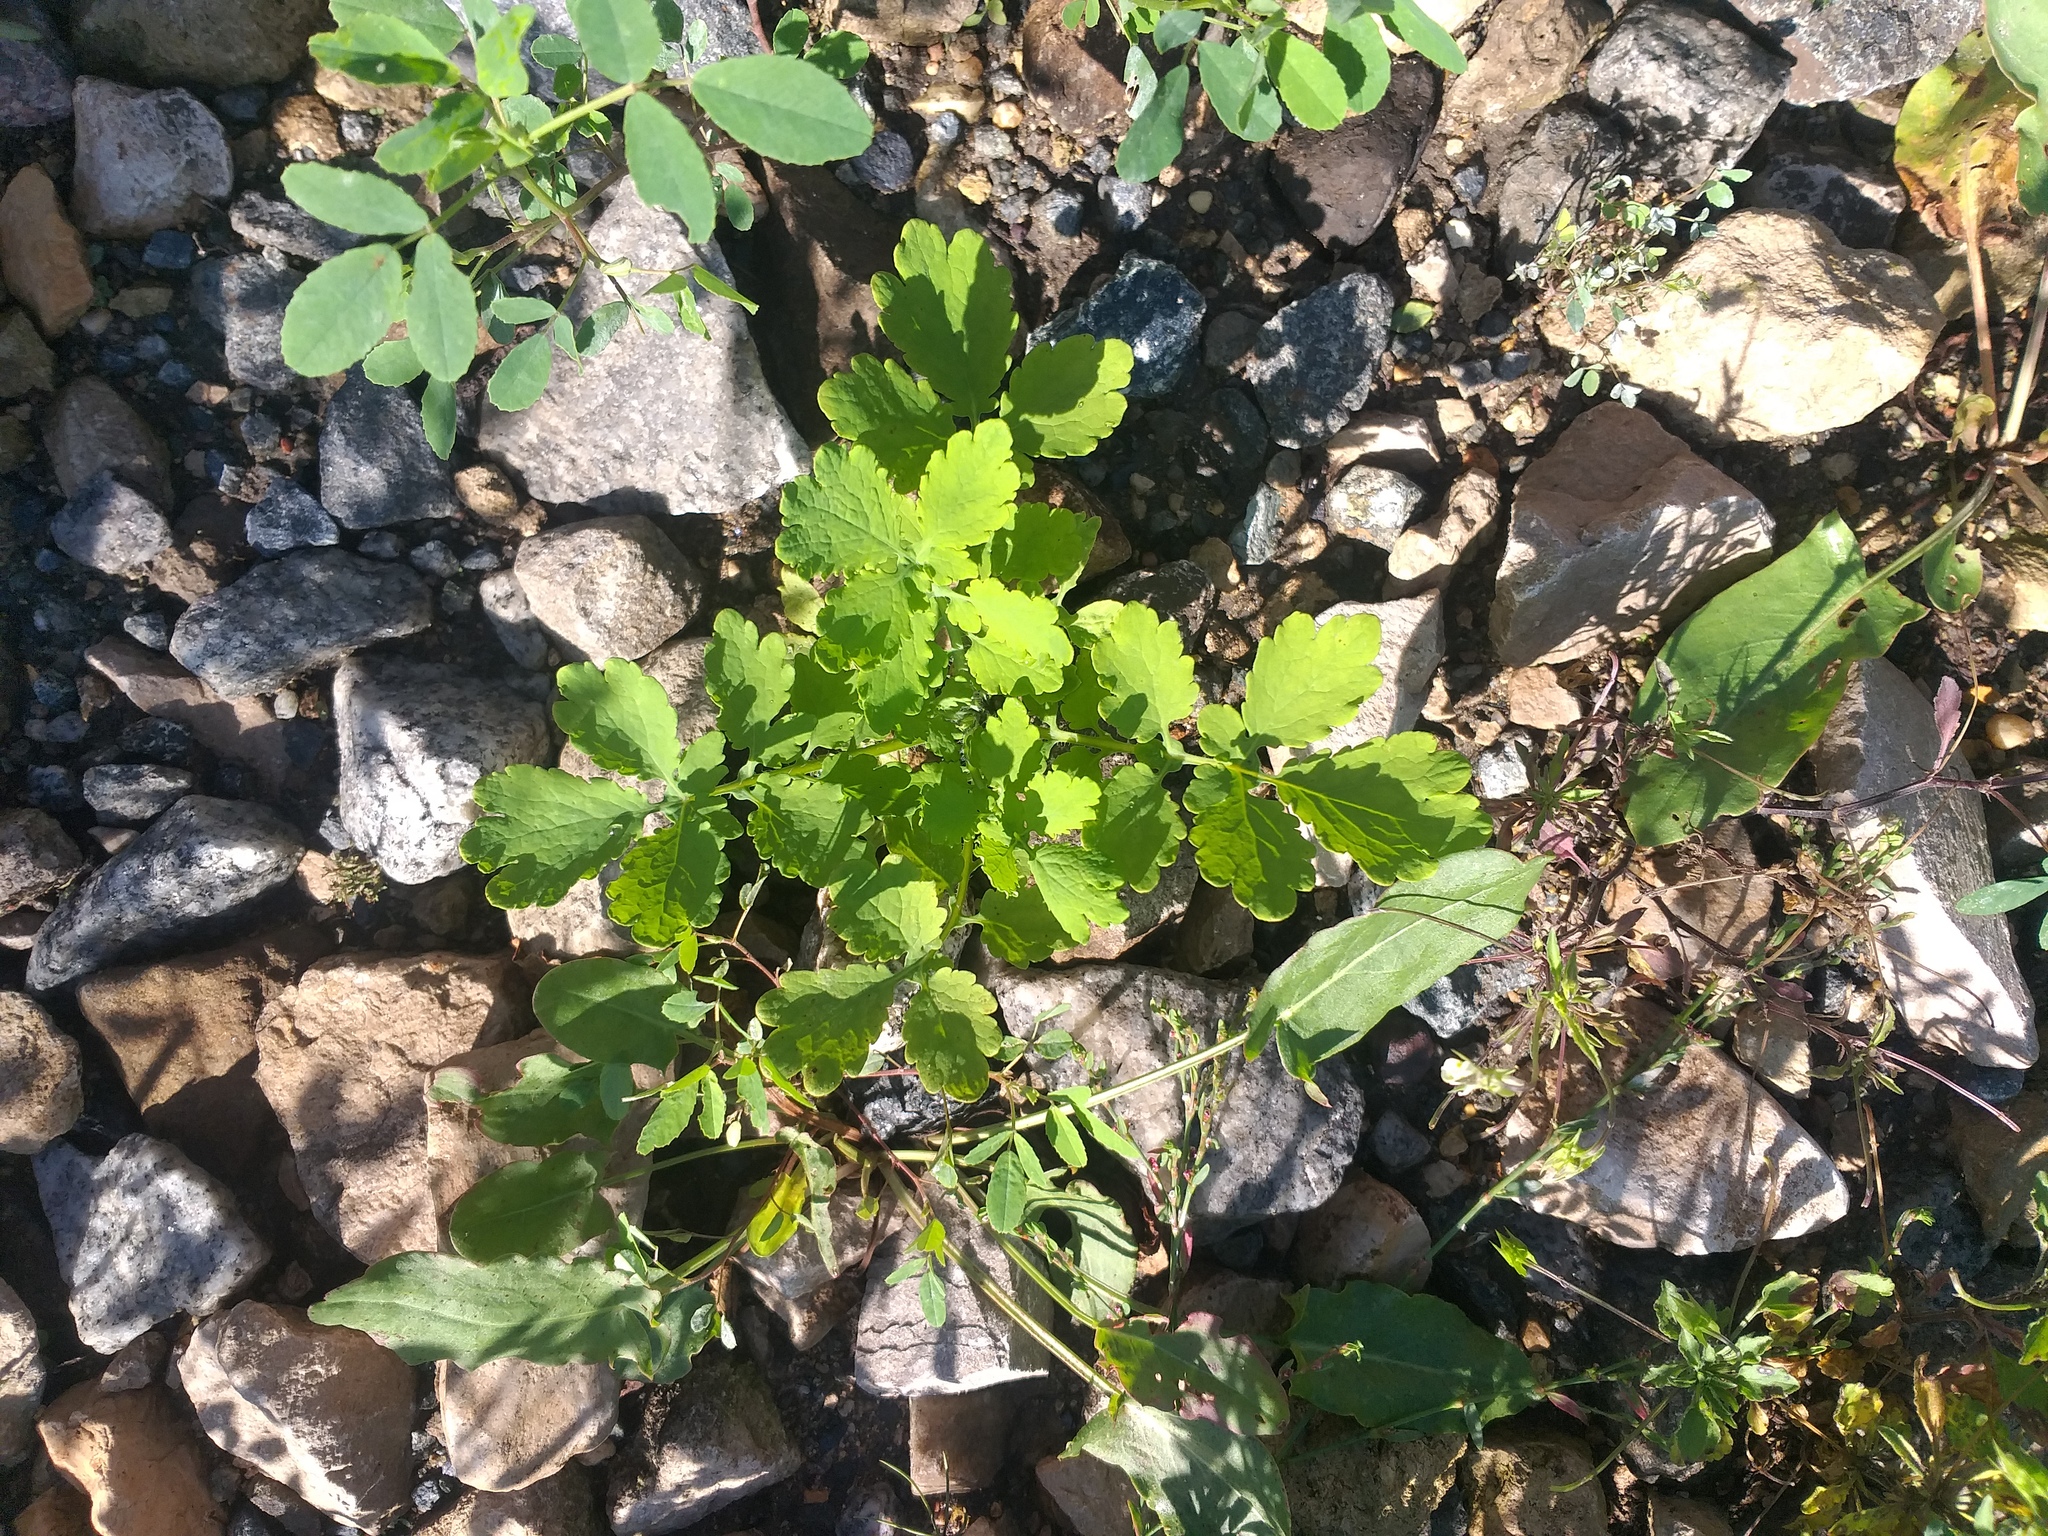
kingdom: Plantae
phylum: Tracheophyta
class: Magnoliopsida
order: Ranunculales
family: Papaveraceae
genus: Chelidonium
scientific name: Chelidonium majus
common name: Greater celandine
